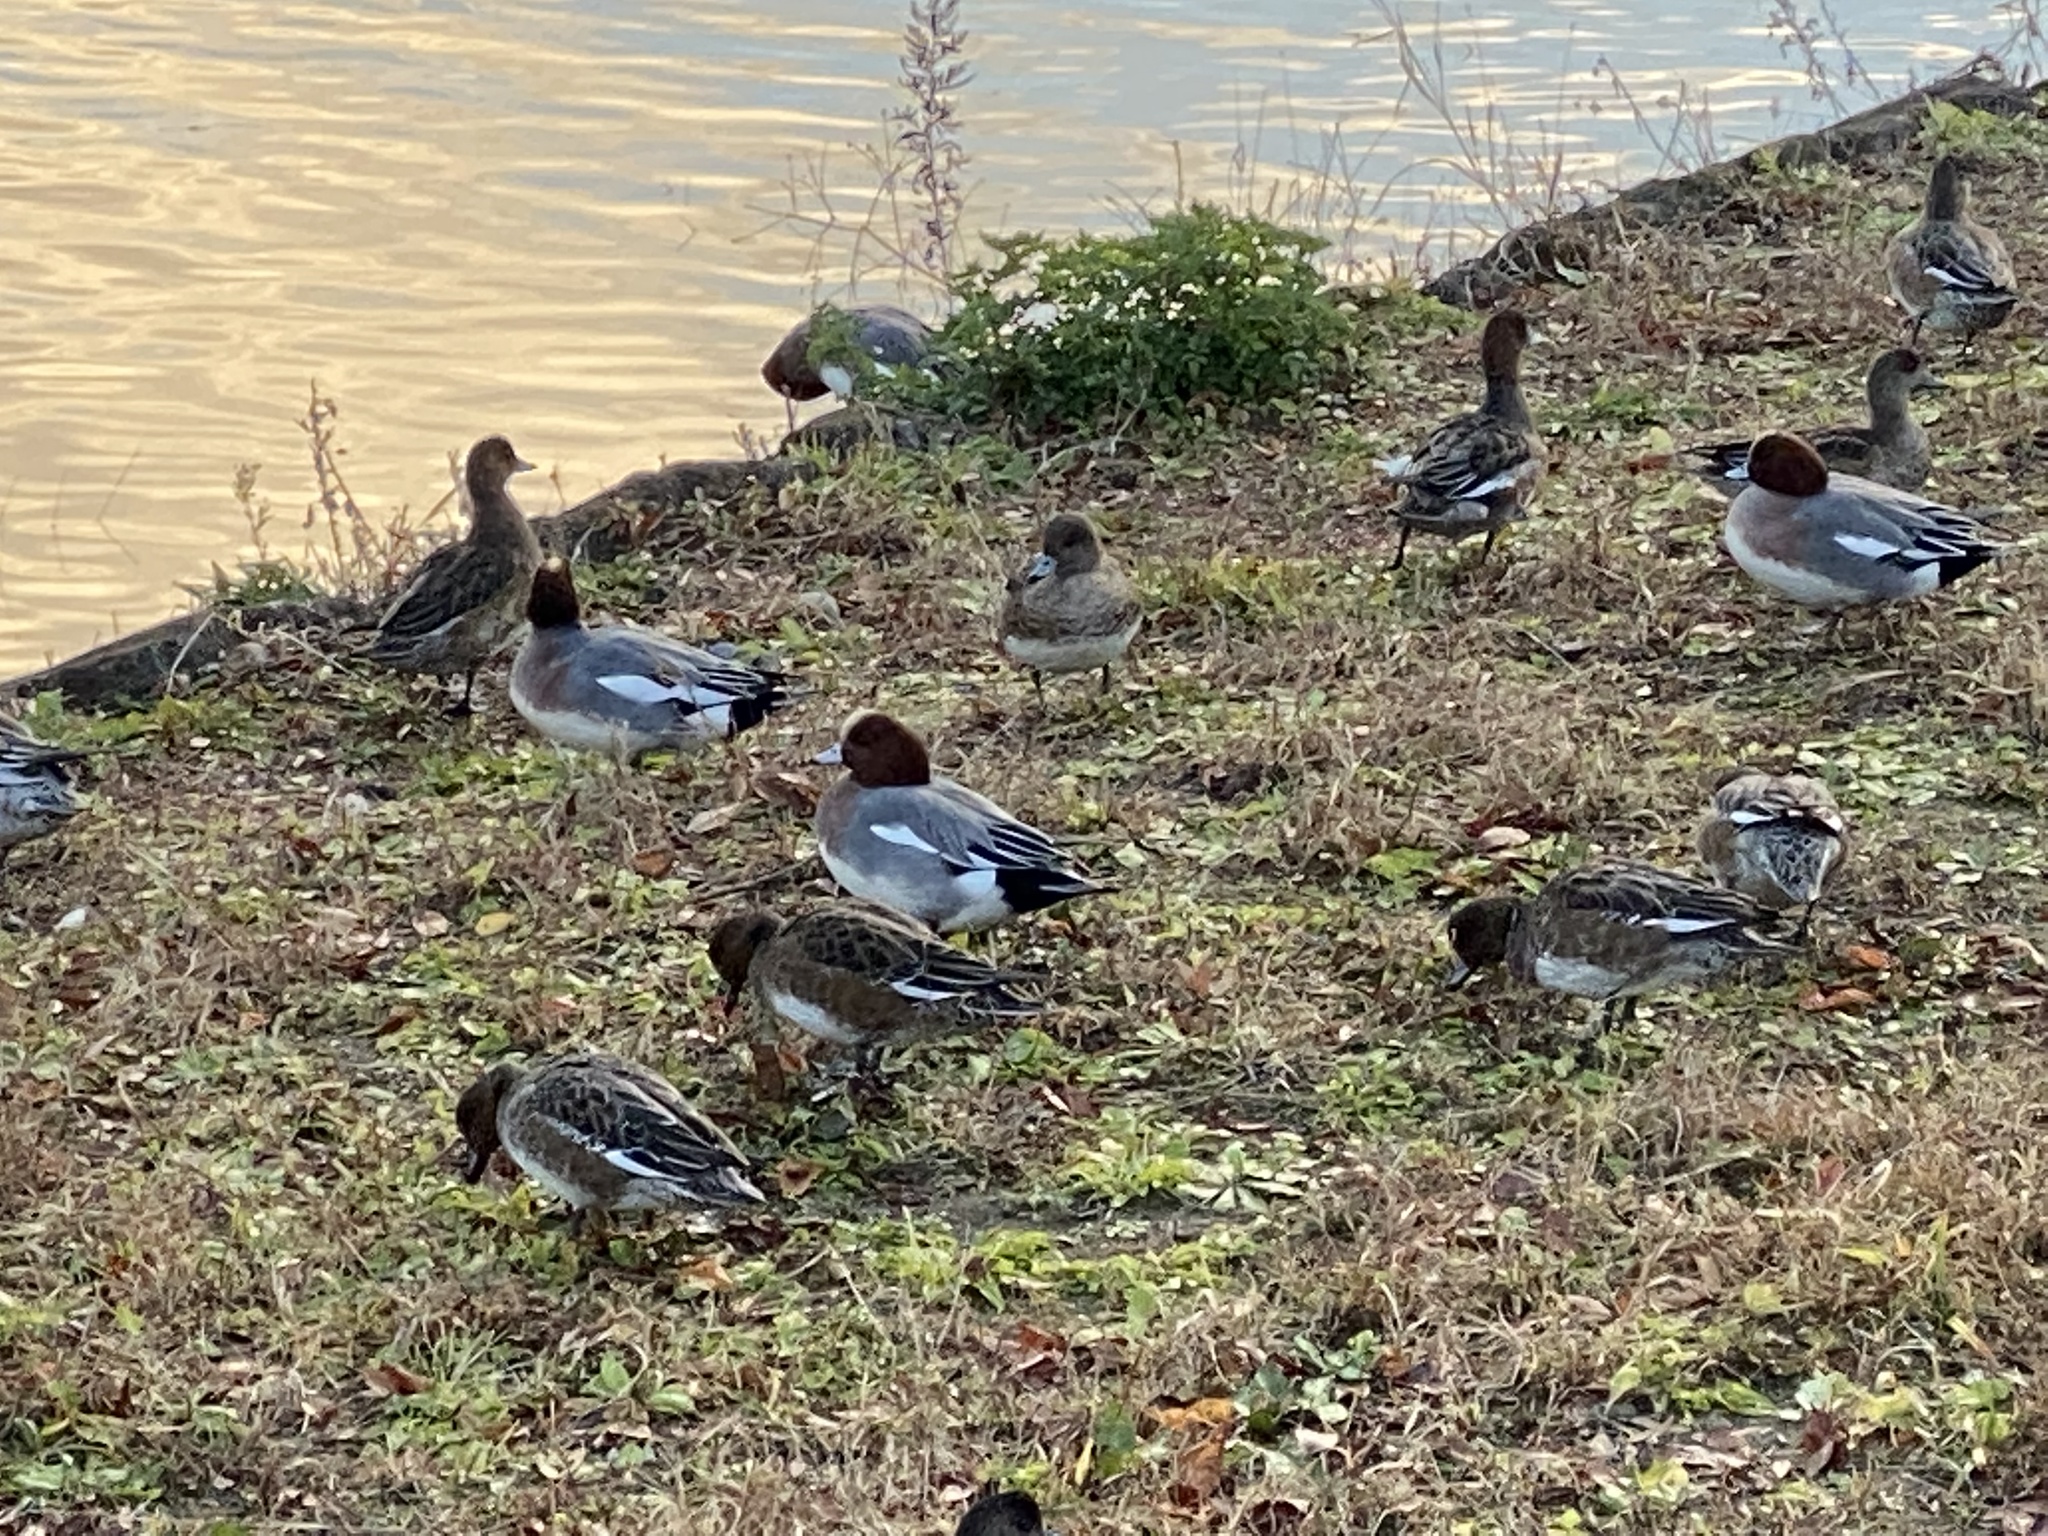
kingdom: Animalia
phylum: Chordata
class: Aves
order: Anseriformes
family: Anatidae
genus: Mareca
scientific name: Mareca penelope
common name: Eurasian wigeon
